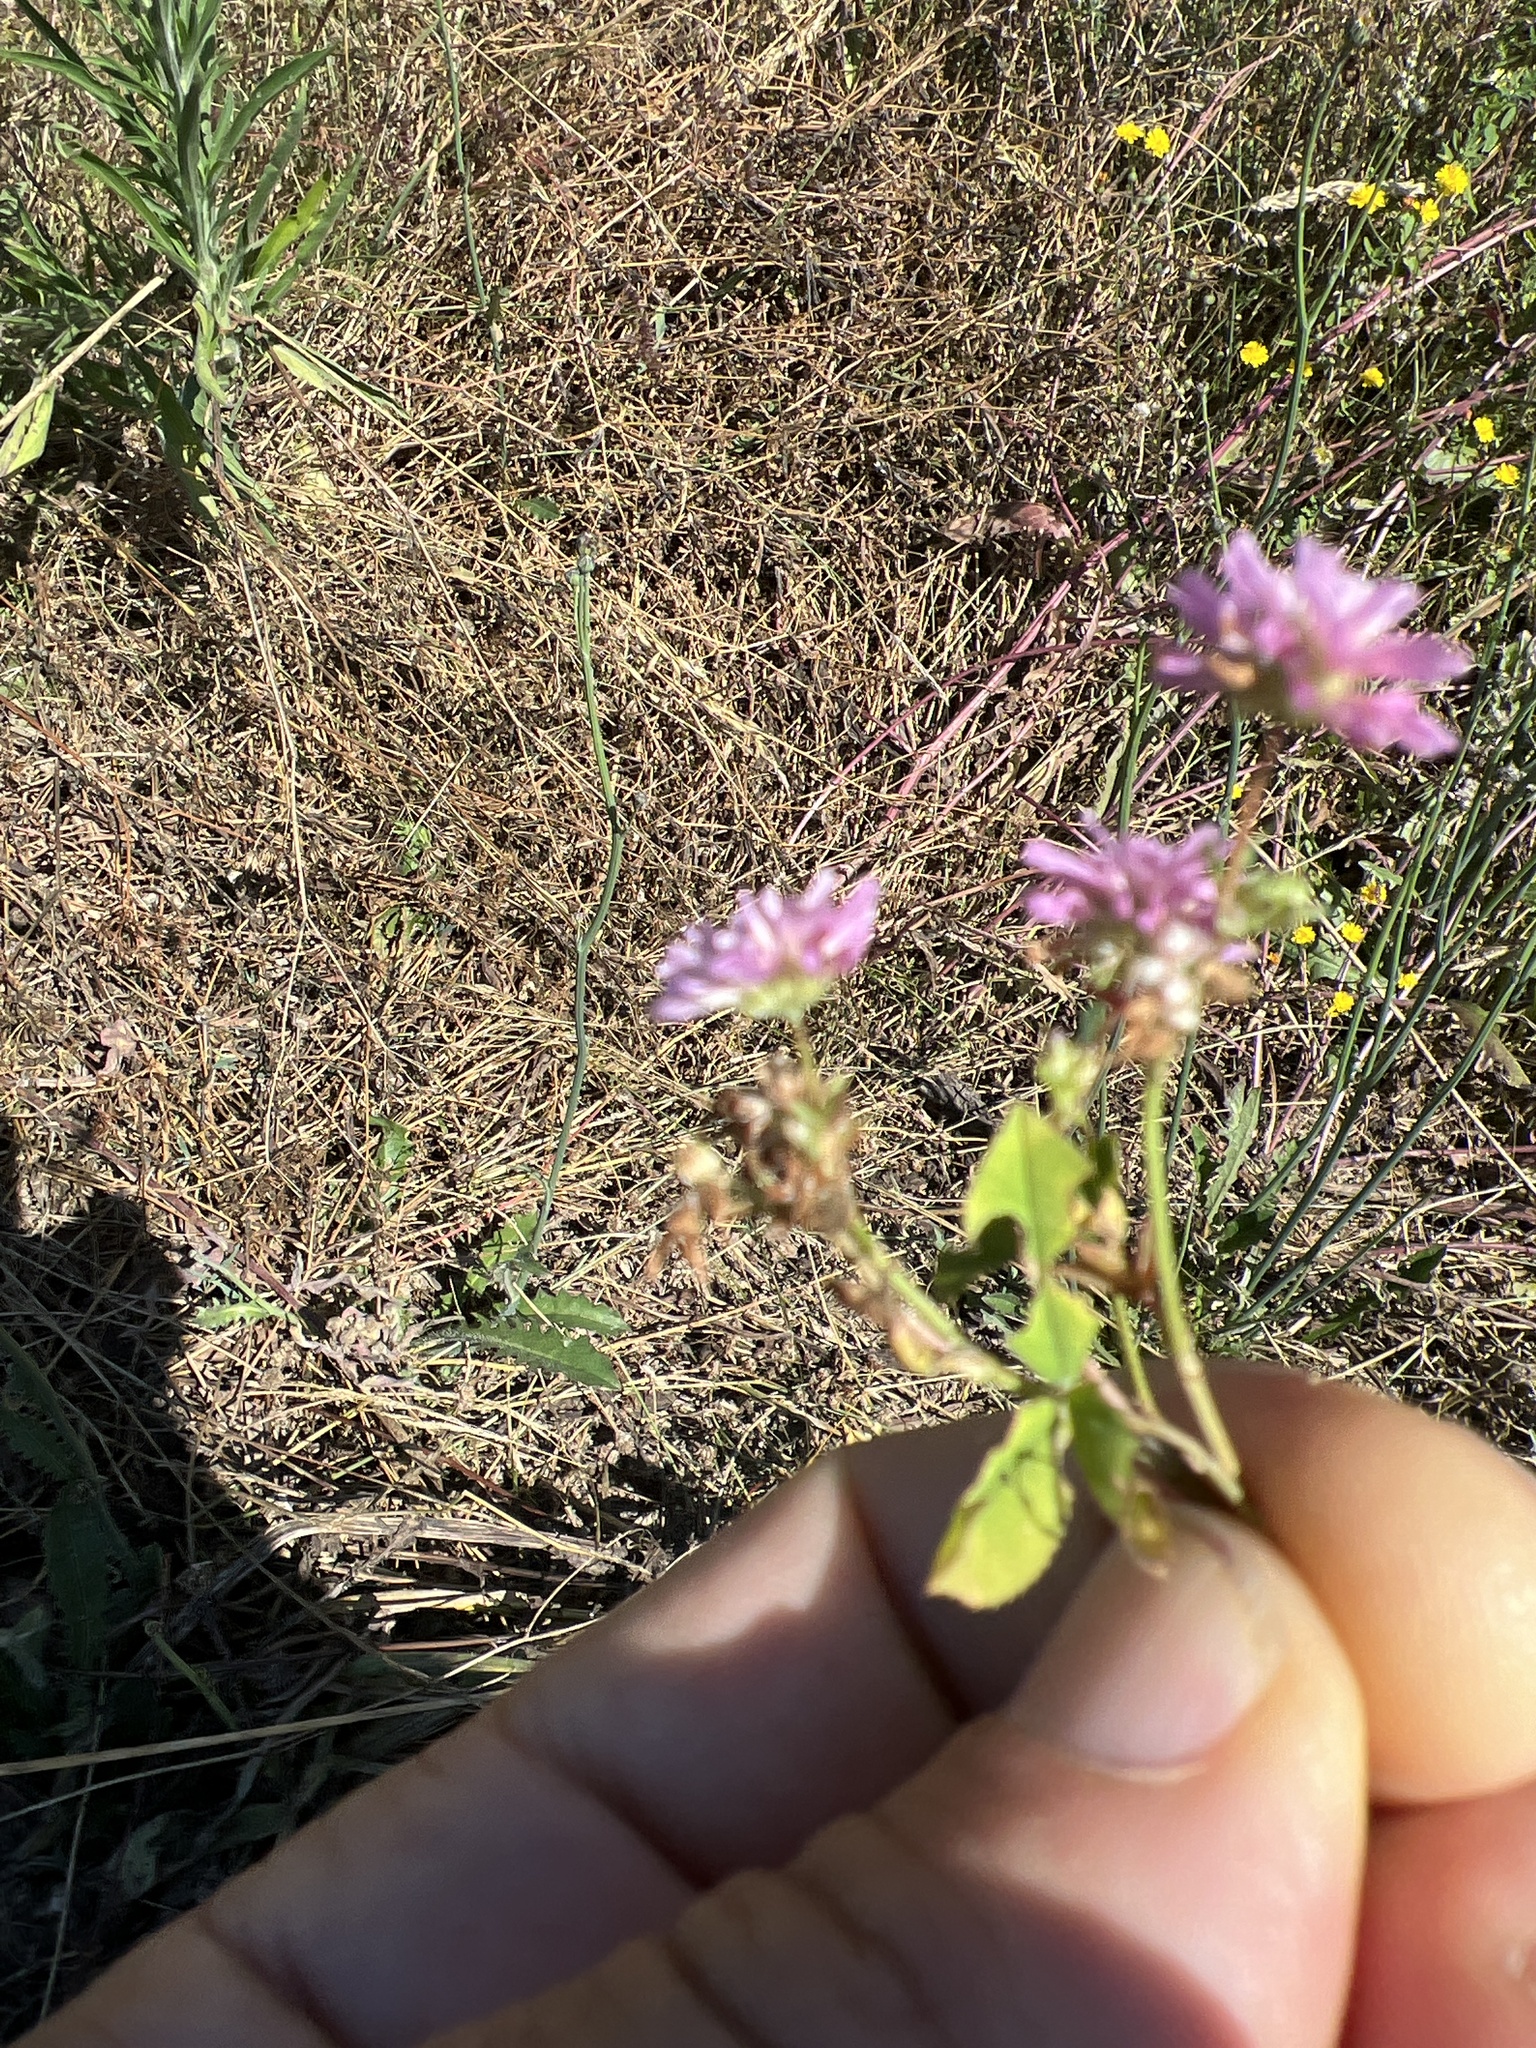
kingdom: Plantae
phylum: Tracheophyta
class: Magnoliopsida
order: Fabales
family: Fabaceae
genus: Trifolium
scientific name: Trifolium resupinatum
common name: Reversed clover
